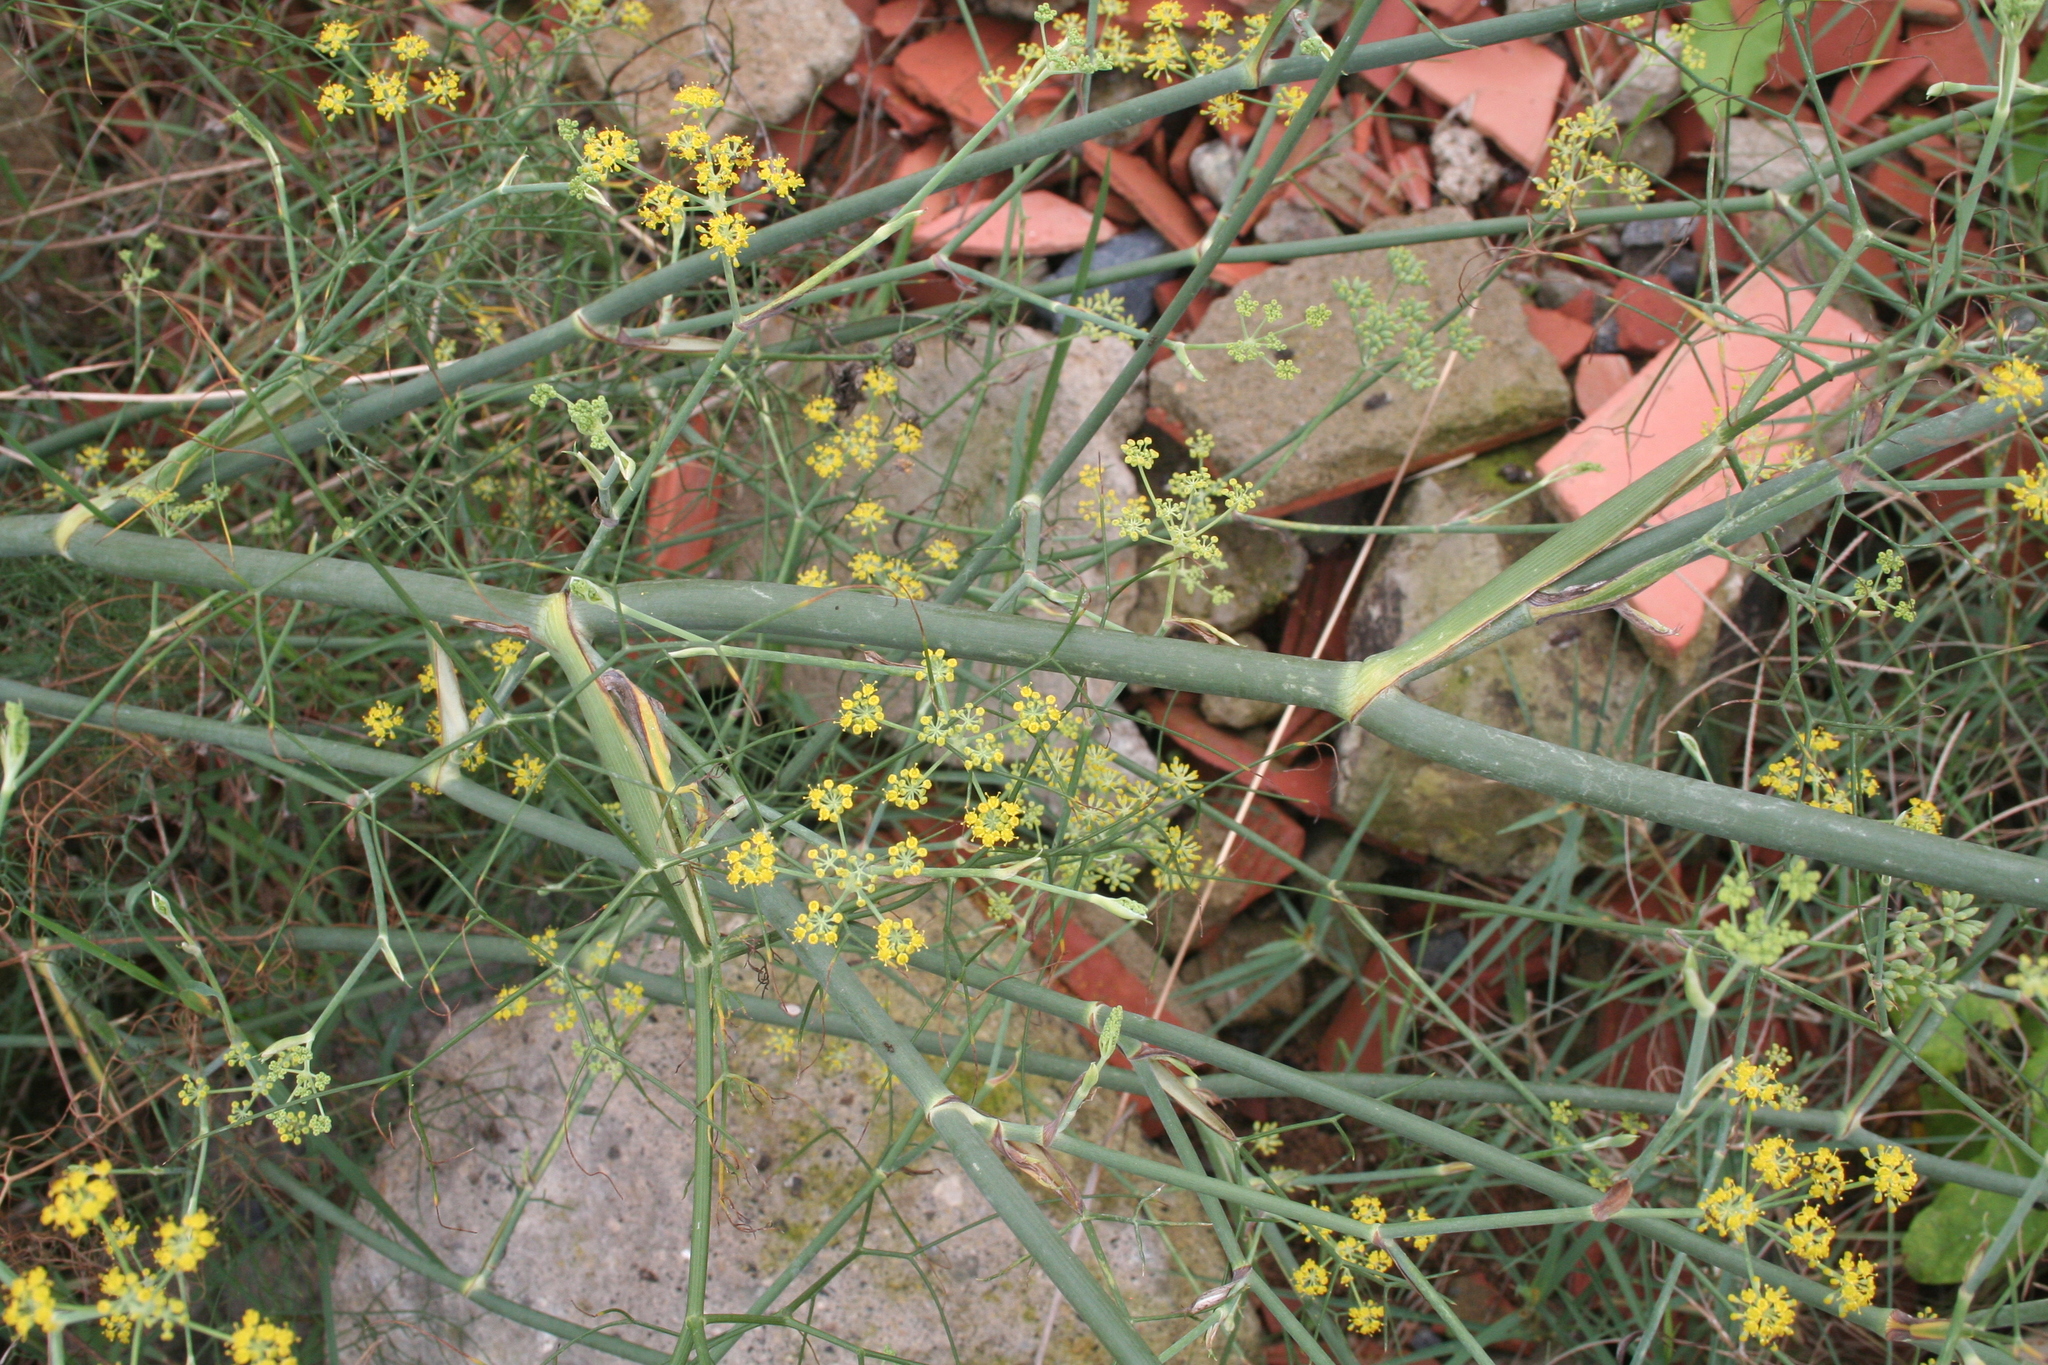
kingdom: Plantae
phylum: Tracheophyta
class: Magnoliopsida
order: Apiales
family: Apiaceae
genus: Foeniculum
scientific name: Foeniculum vulgare
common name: Fennel
